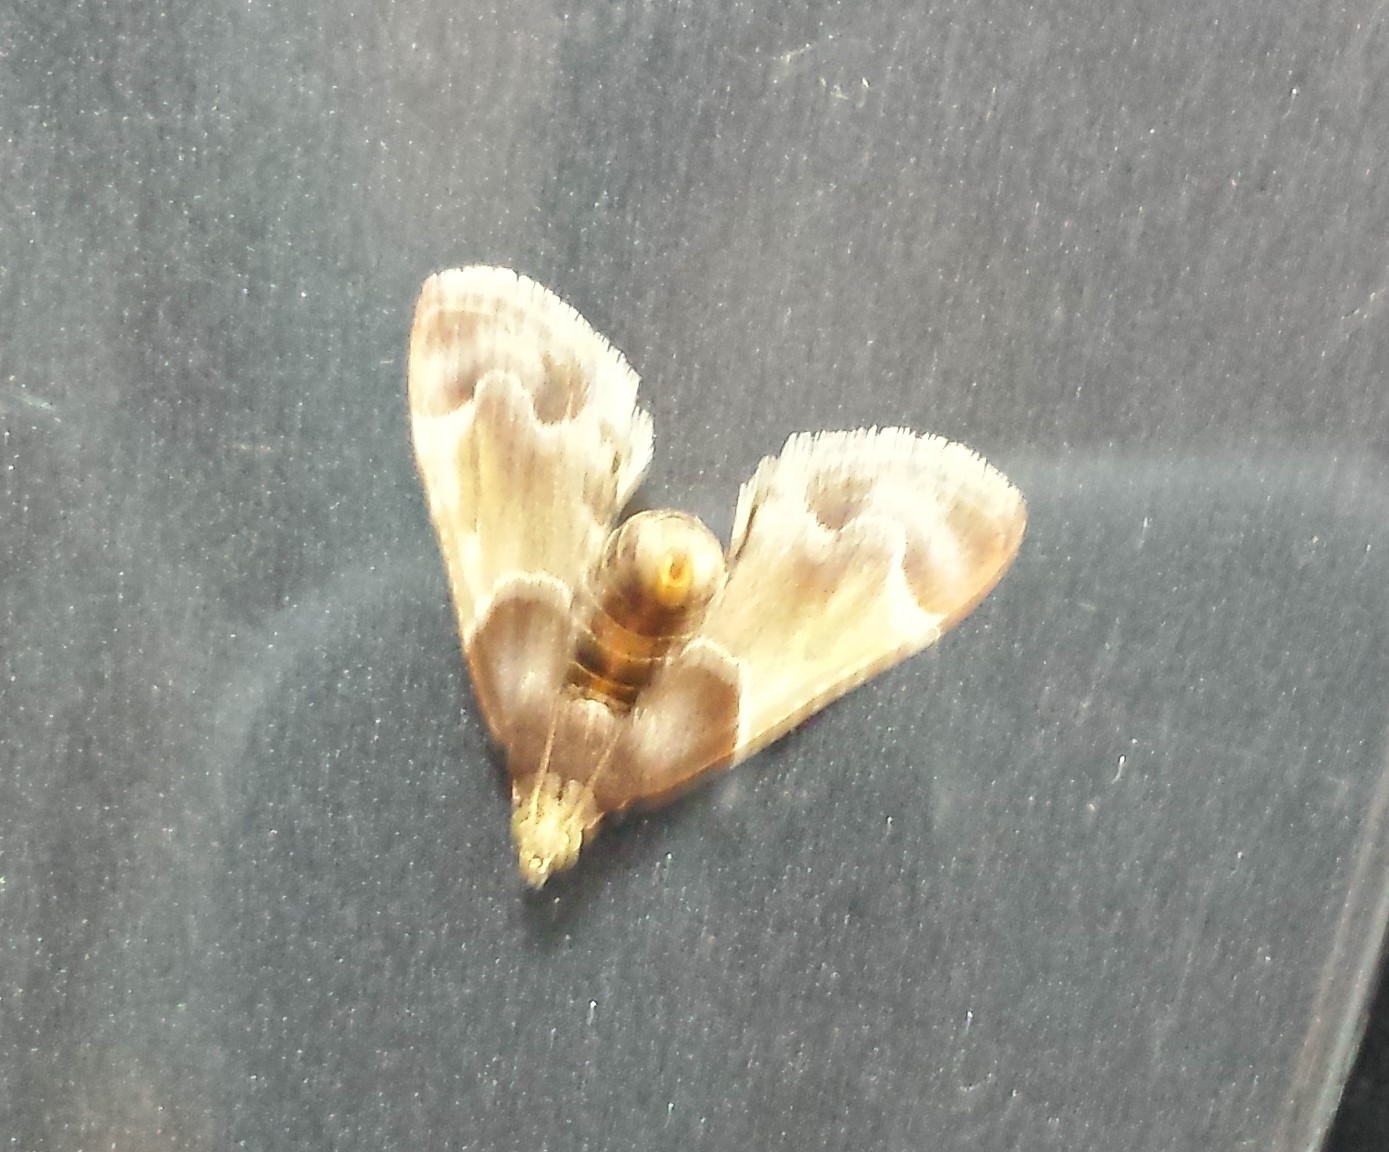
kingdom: Animalia
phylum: Arthropoda
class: Insecta
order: Lepidoptera
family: Pyralidae
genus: Pyralis
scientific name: Pyralis farinalis
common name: Meal moth
